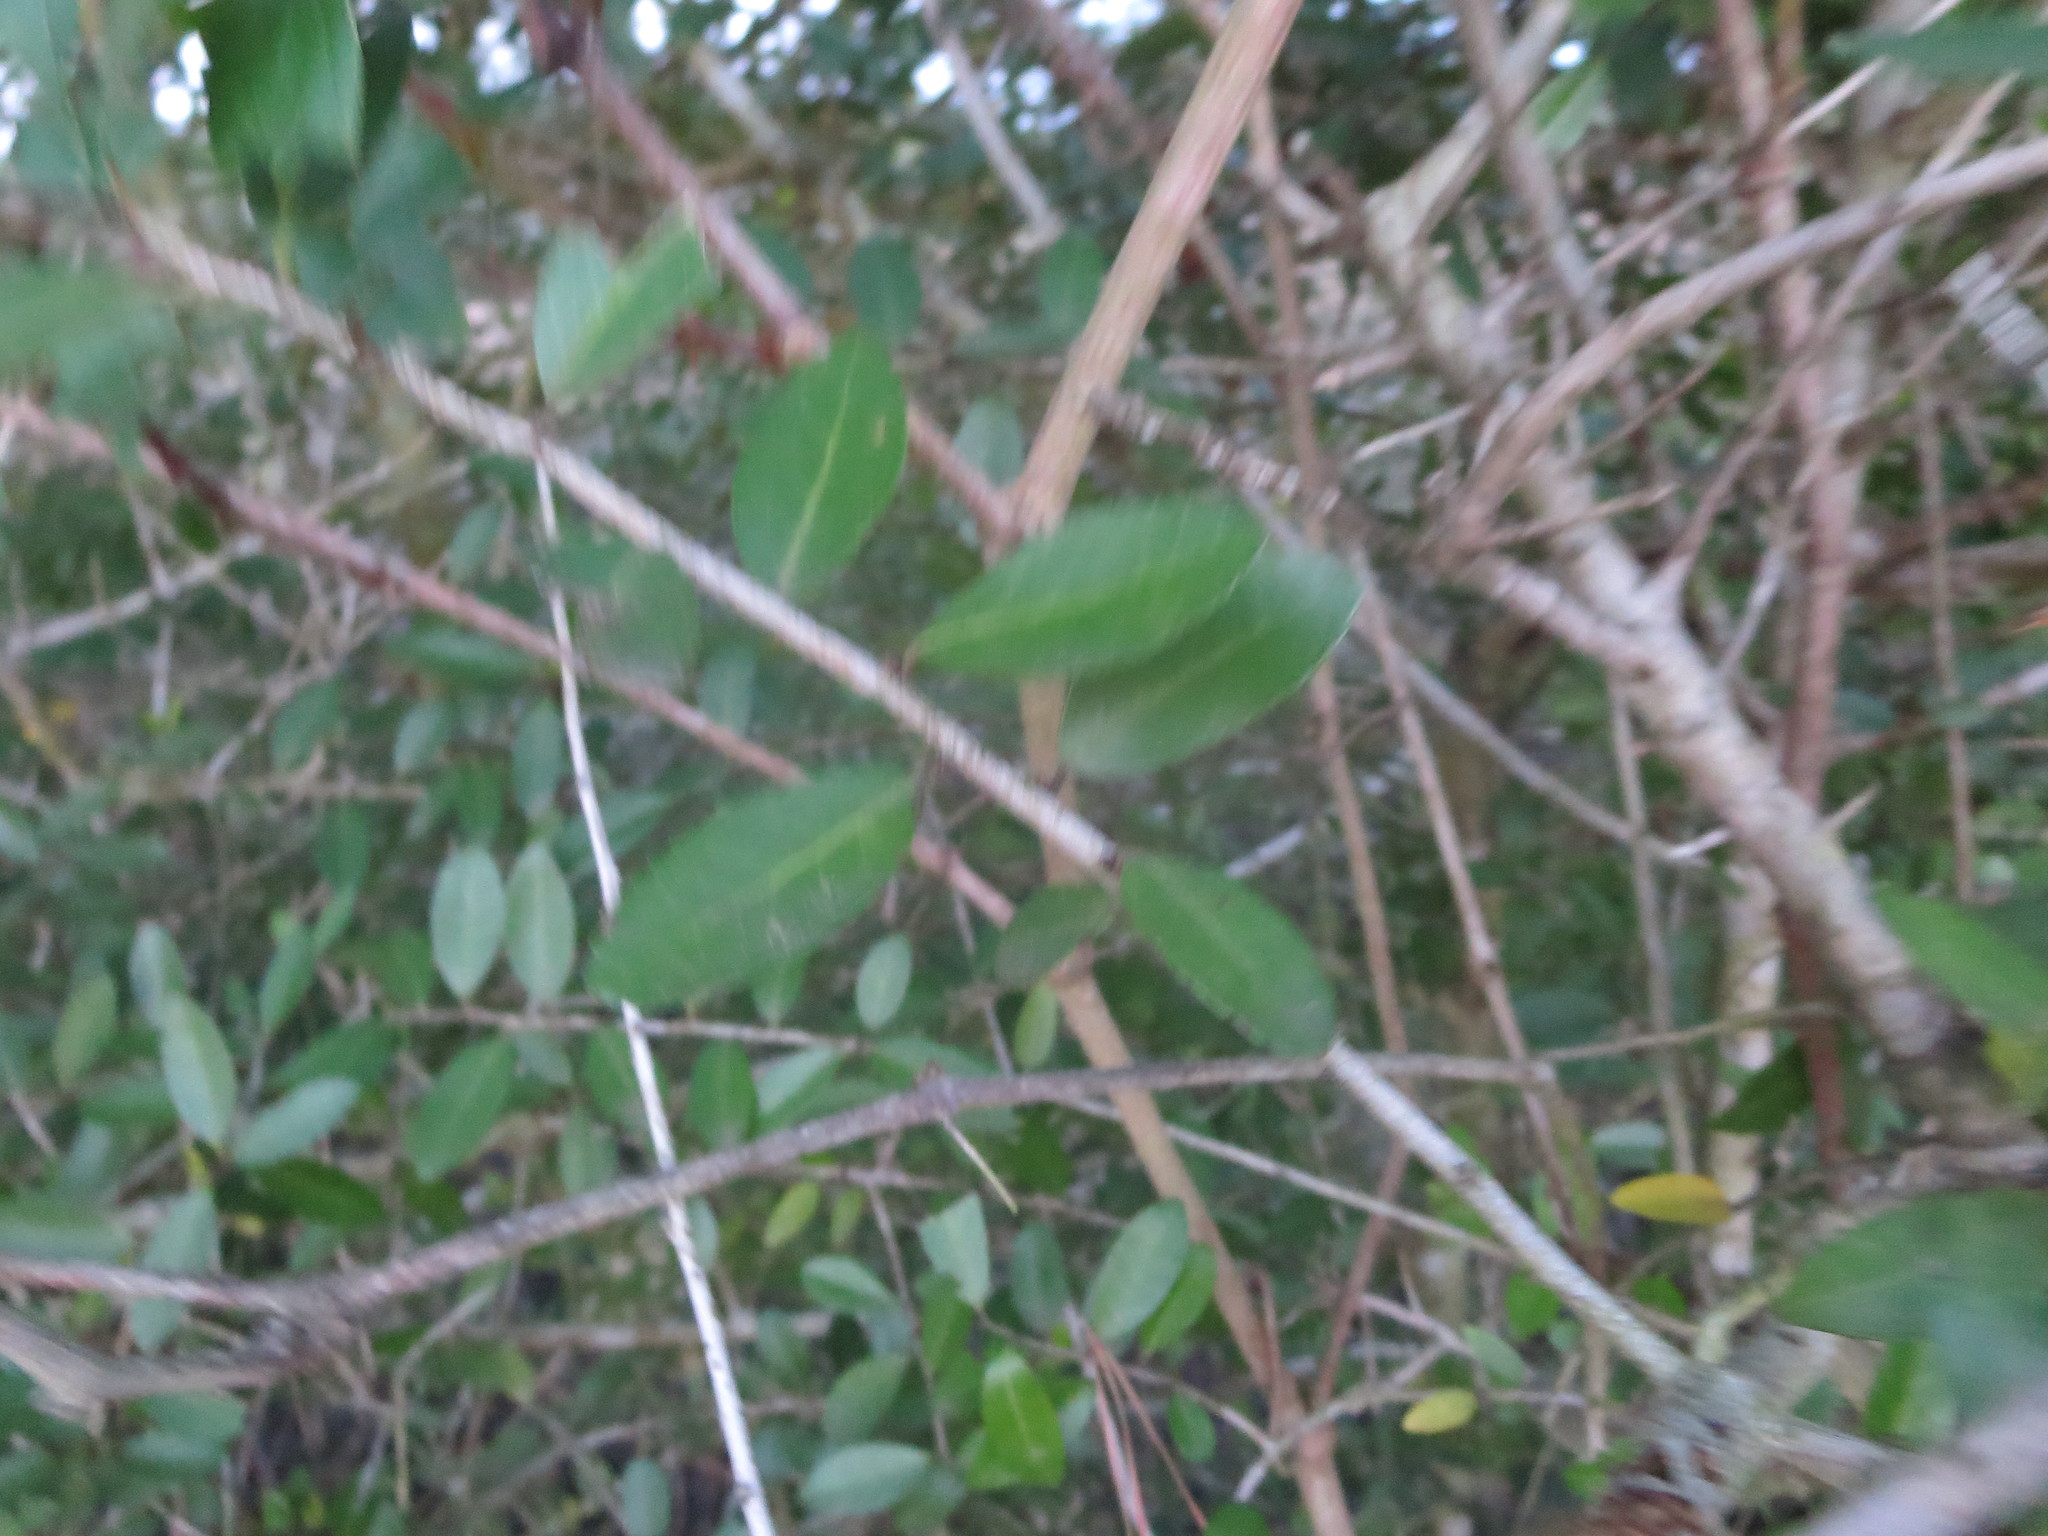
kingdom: Plantae
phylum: Tracheophyta
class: Magnoliopsida
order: Aquifoliales
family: Aquifoliaceae
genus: Ilex
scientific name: Ilex vomitoria
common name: Yaupon holly
